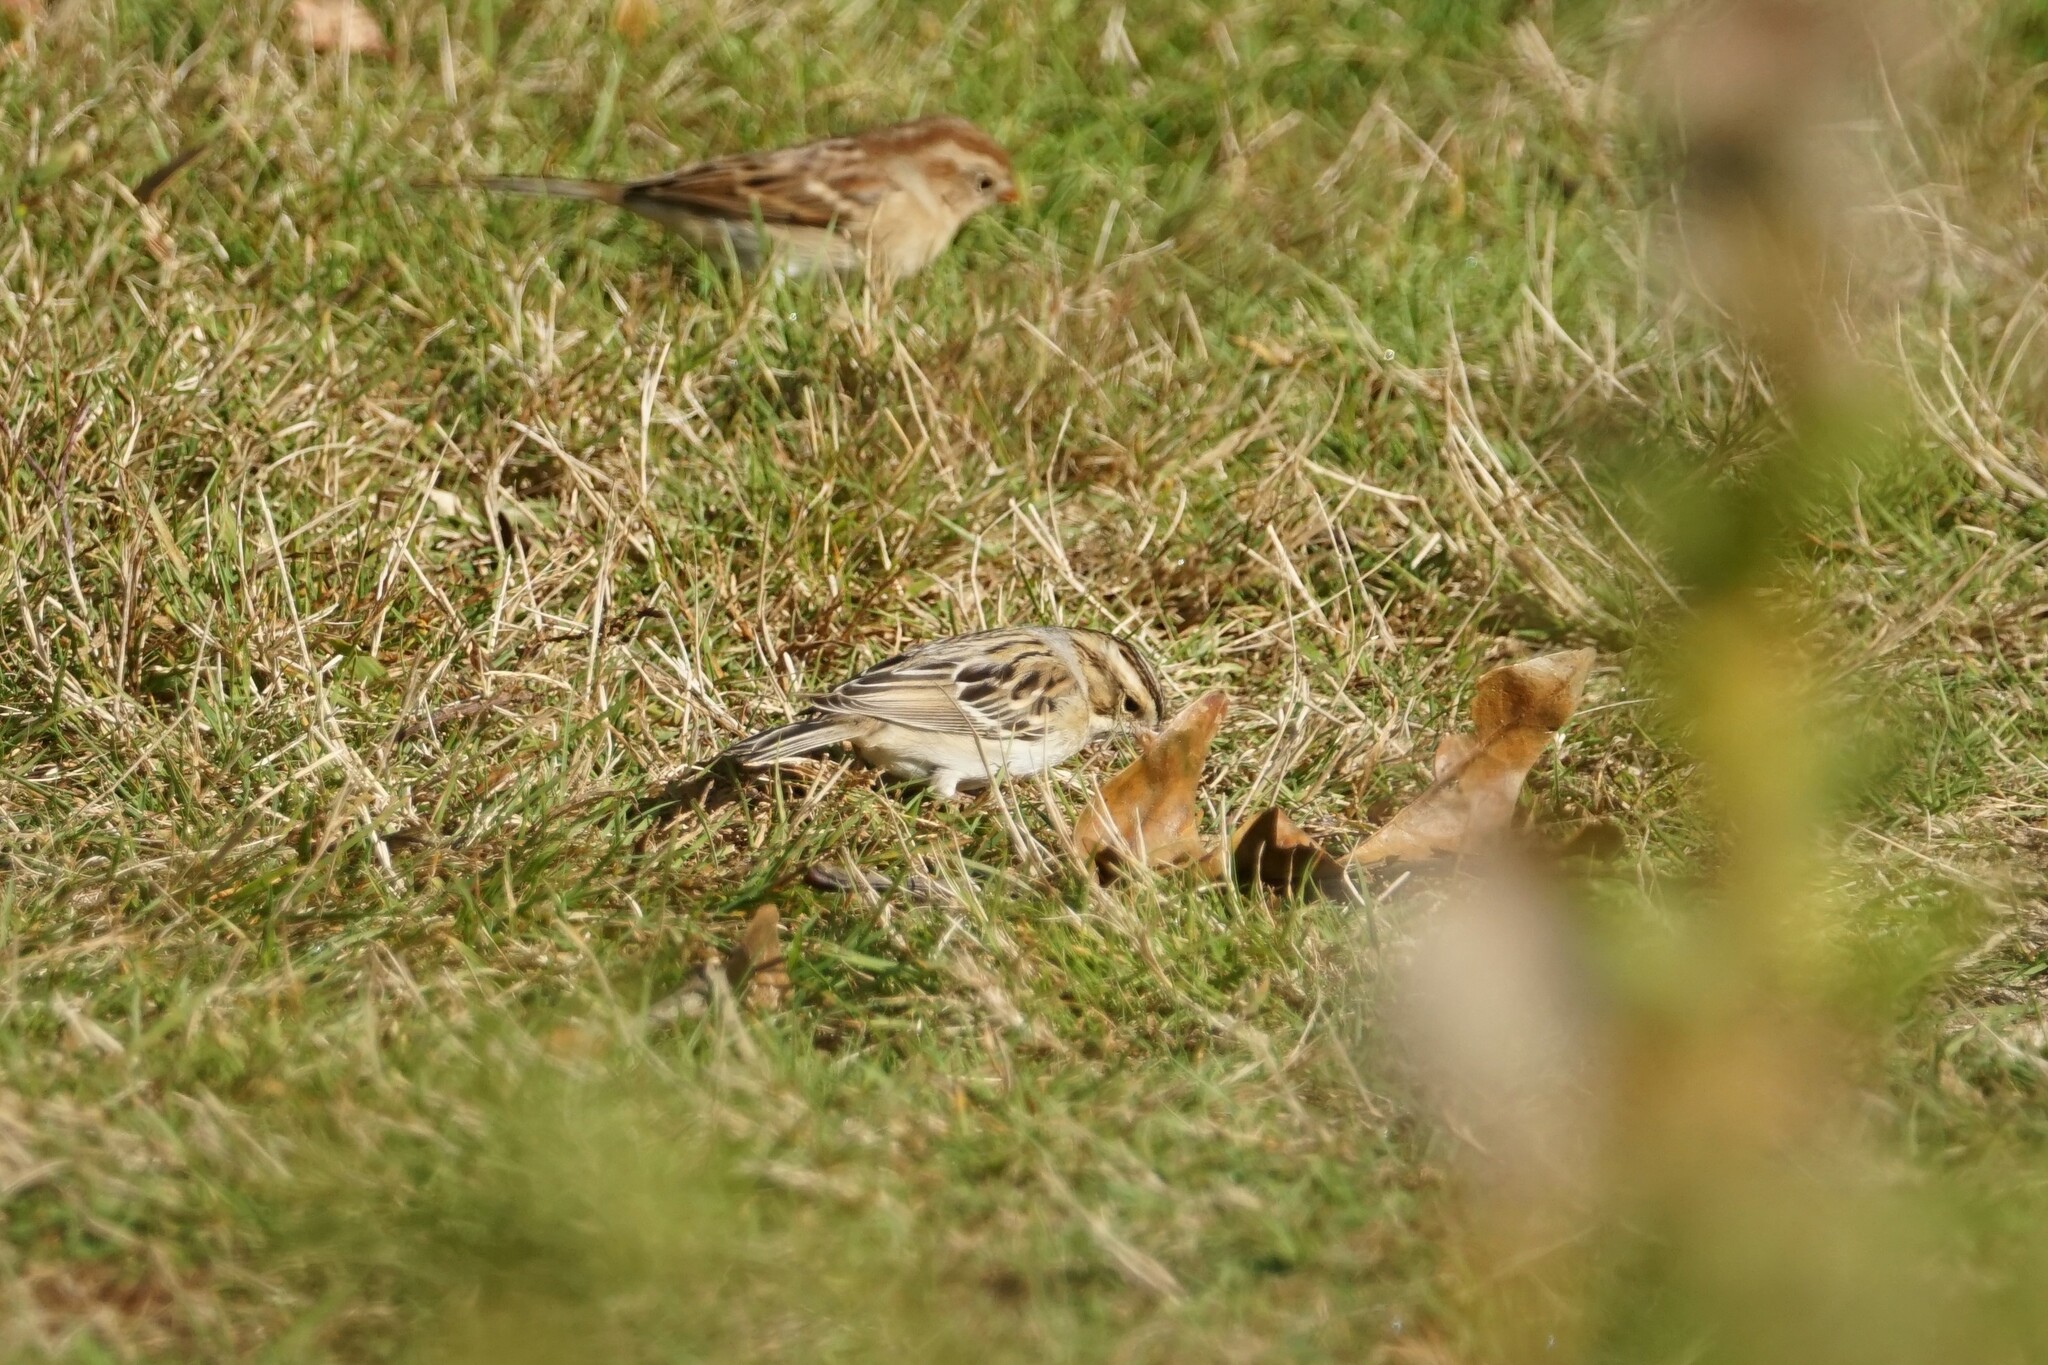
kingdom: Animalia
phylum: Chordata
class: Aves
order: Passeriformes
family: Passerellidae
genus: Spizella
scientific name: Spizella pallida
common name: Clay-colored sparrow
